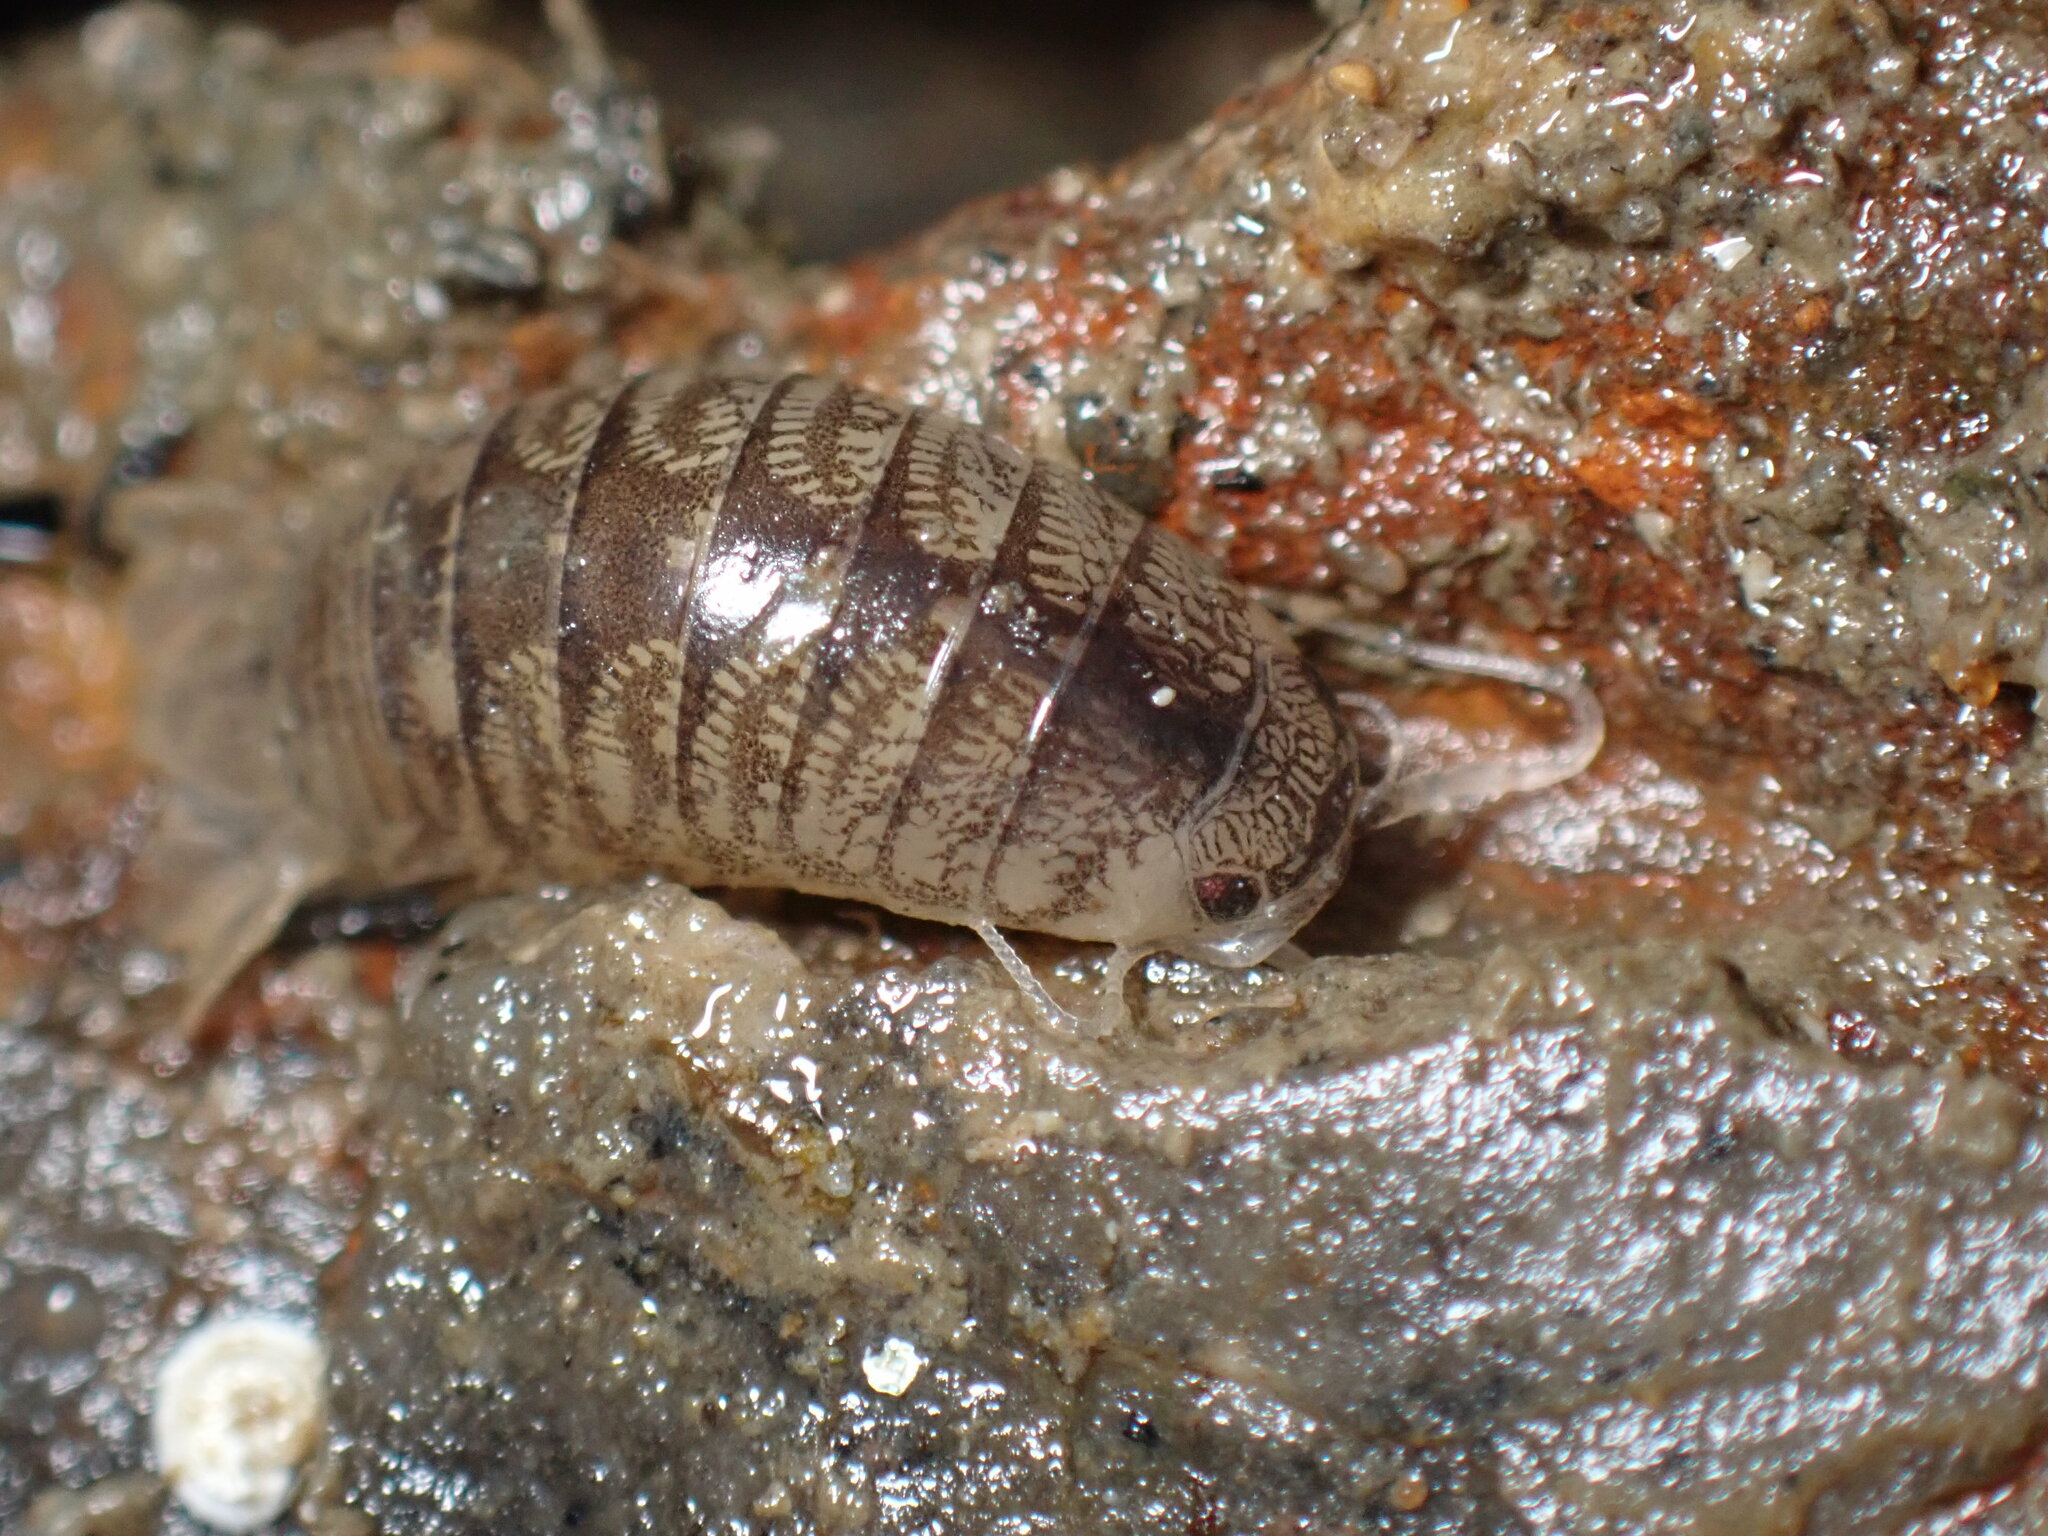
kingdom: Animalia
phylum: Arthropoda
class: Malacostraca
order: Isopoda
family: Cirolanidae
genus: Cirolana
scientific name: Cirolana harfordi
